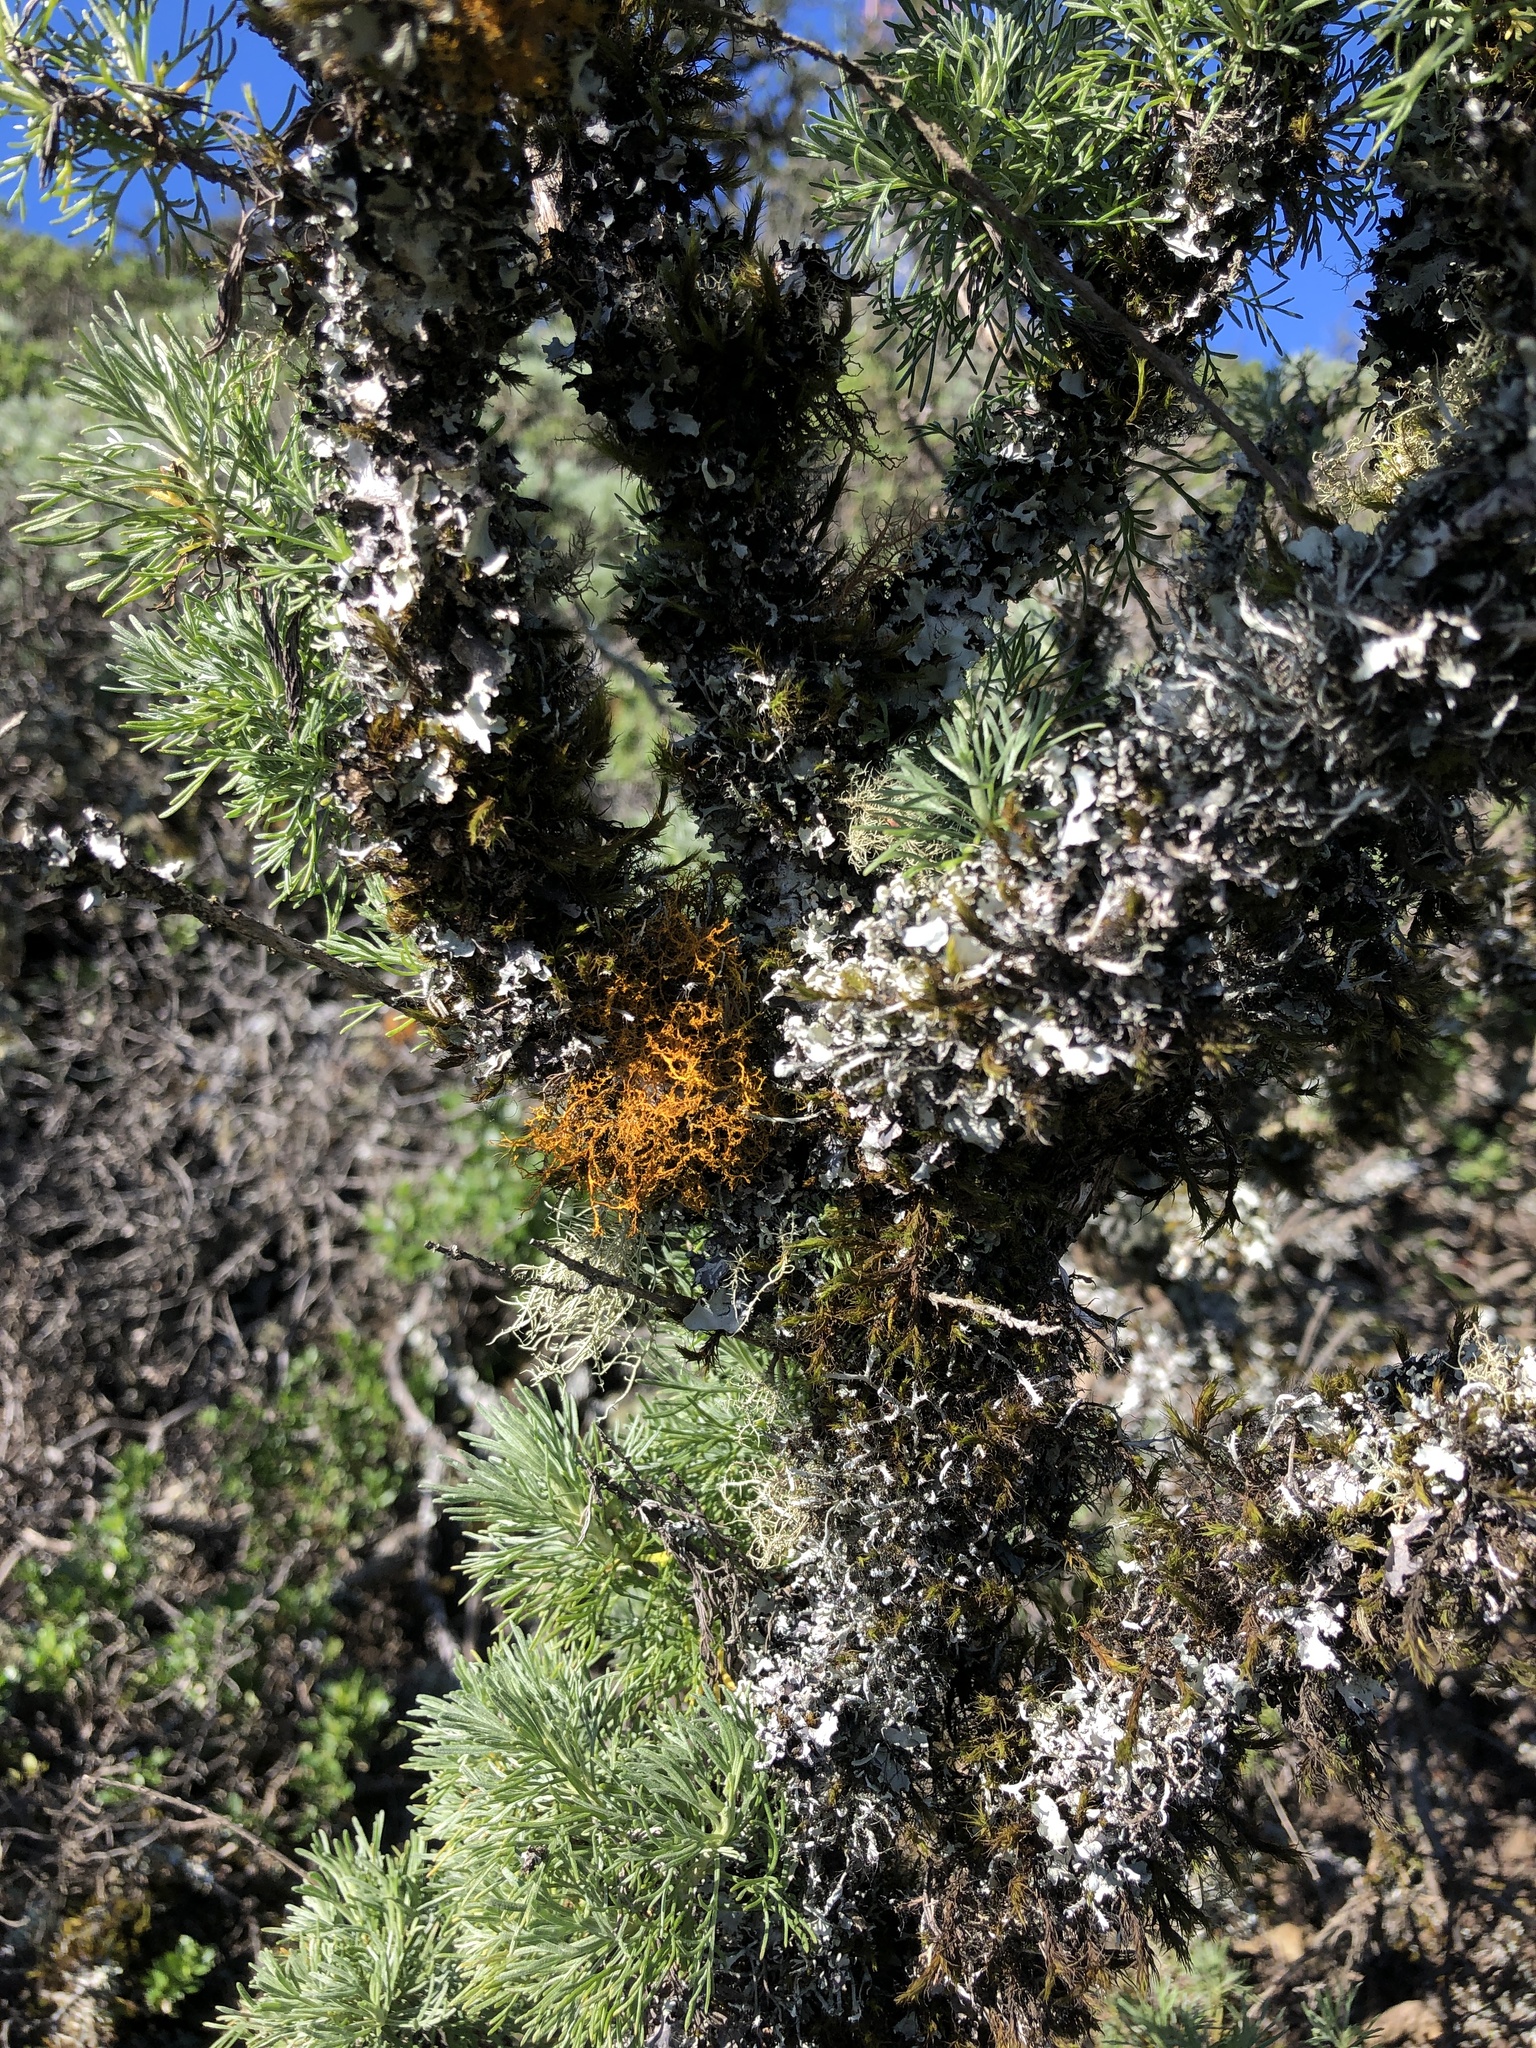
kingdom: Plantae
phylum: Tracheophyta
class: Magnoliopsida
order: Asterales
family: Asteraceae
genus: Artemisia
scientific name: Artemisia californica
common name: California sagebrush
